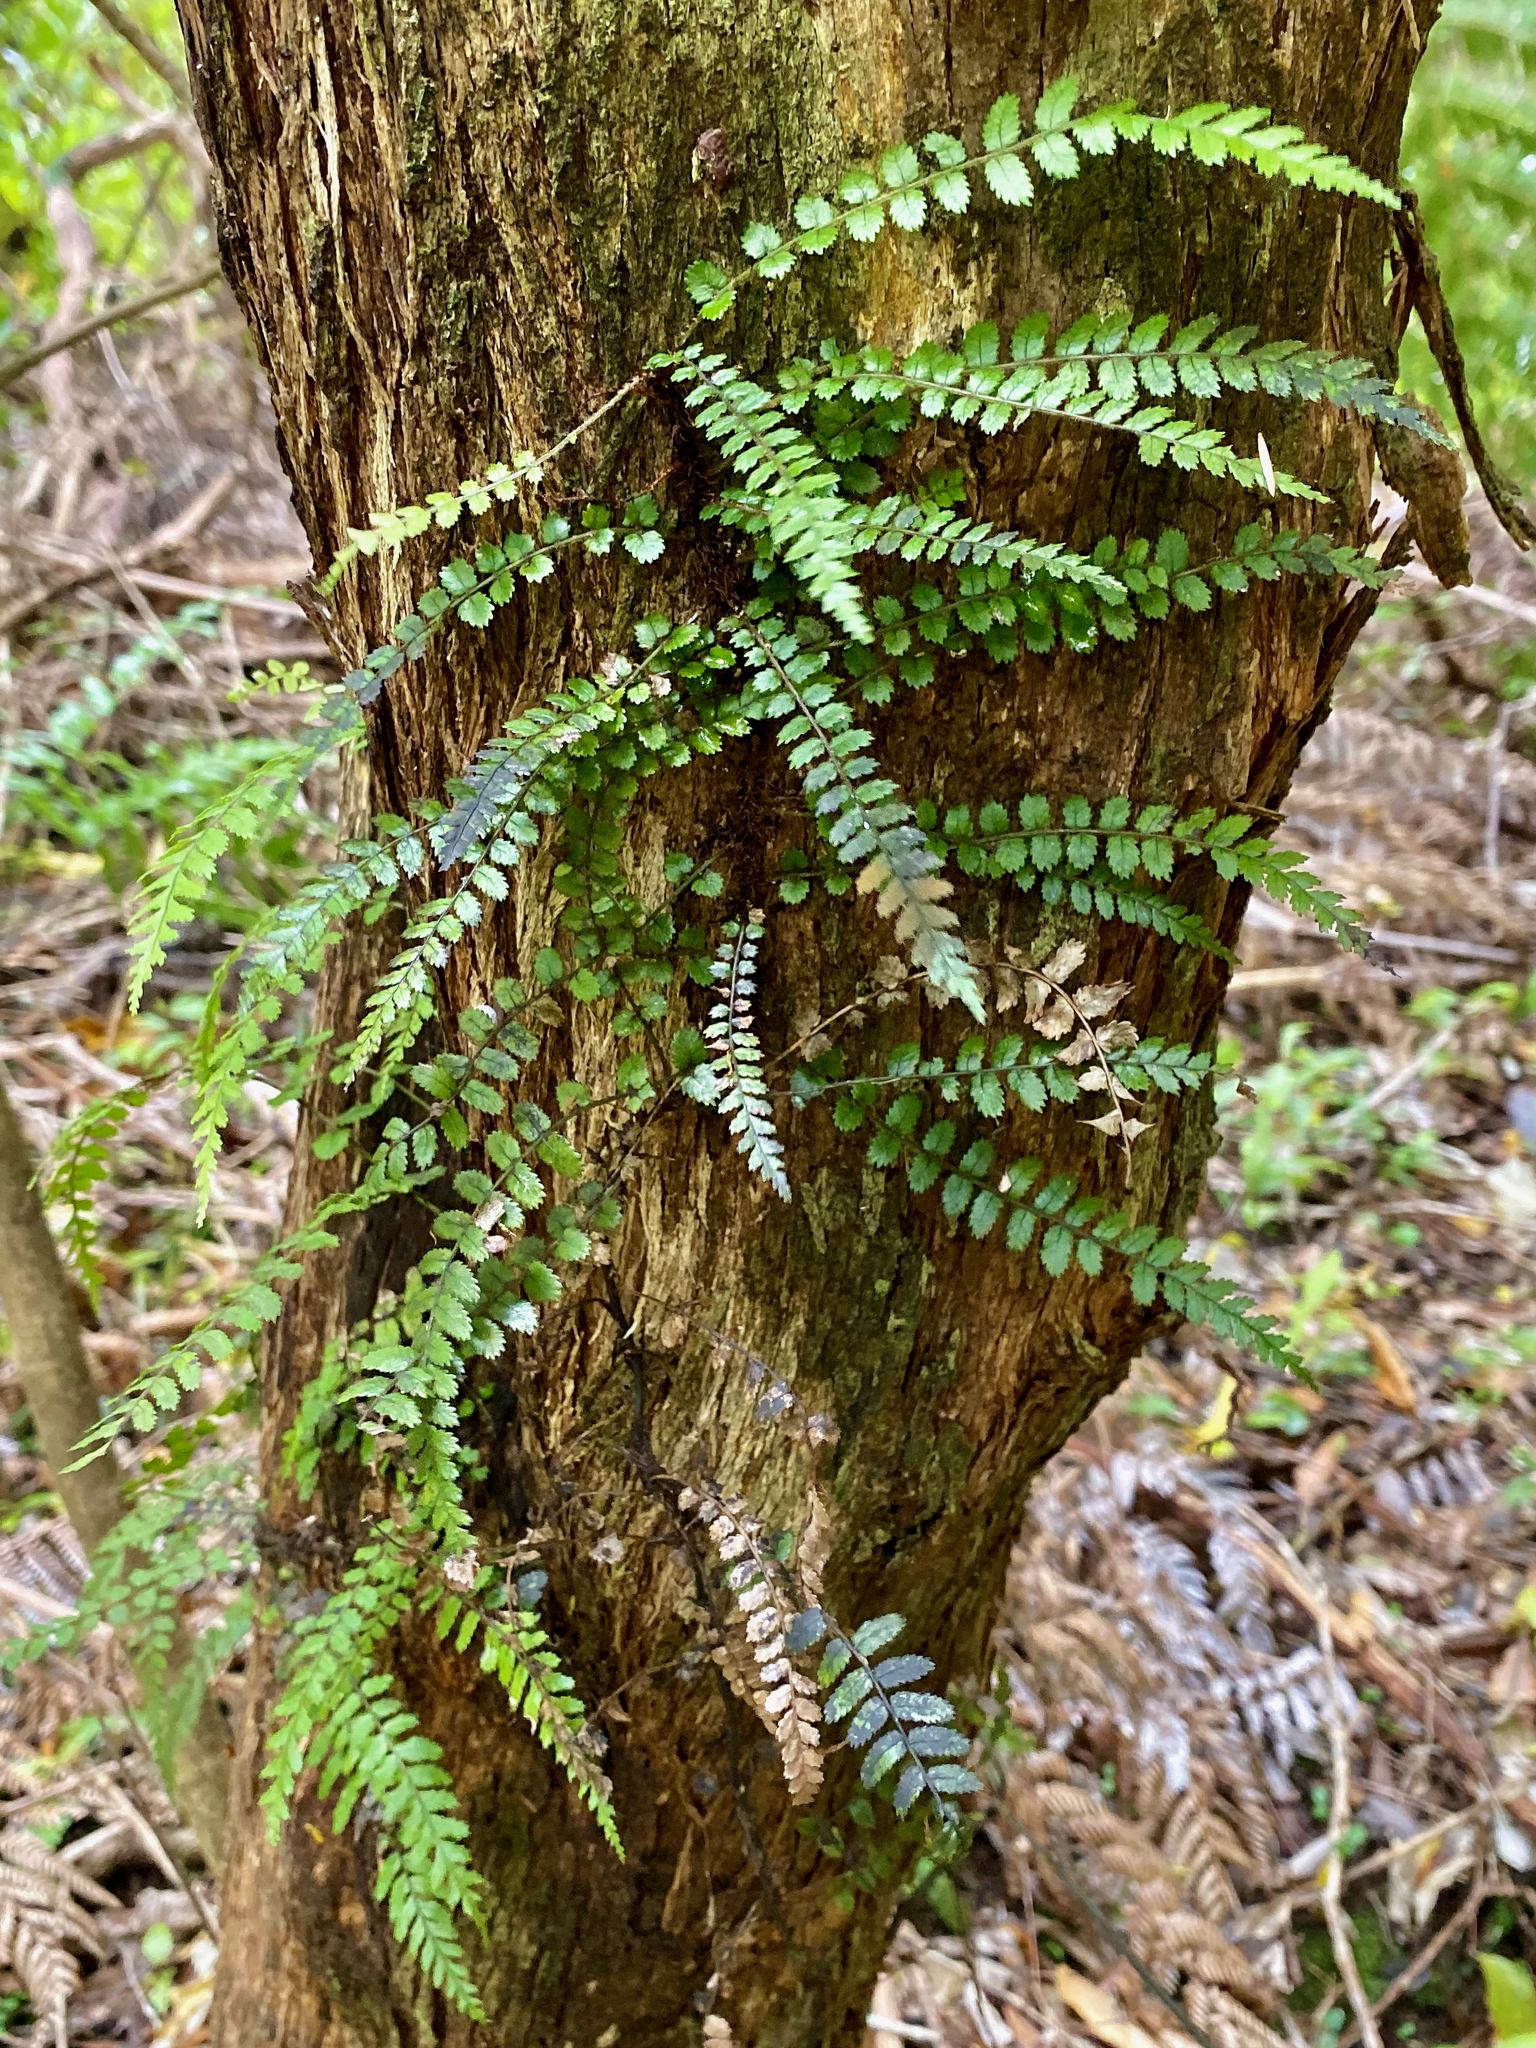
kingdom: Plantae
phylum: Tracheophyta
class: Polypodiopsida
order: Polypodiales
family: Blechnaceae
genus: Icarus
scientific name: Icarus filiformis
